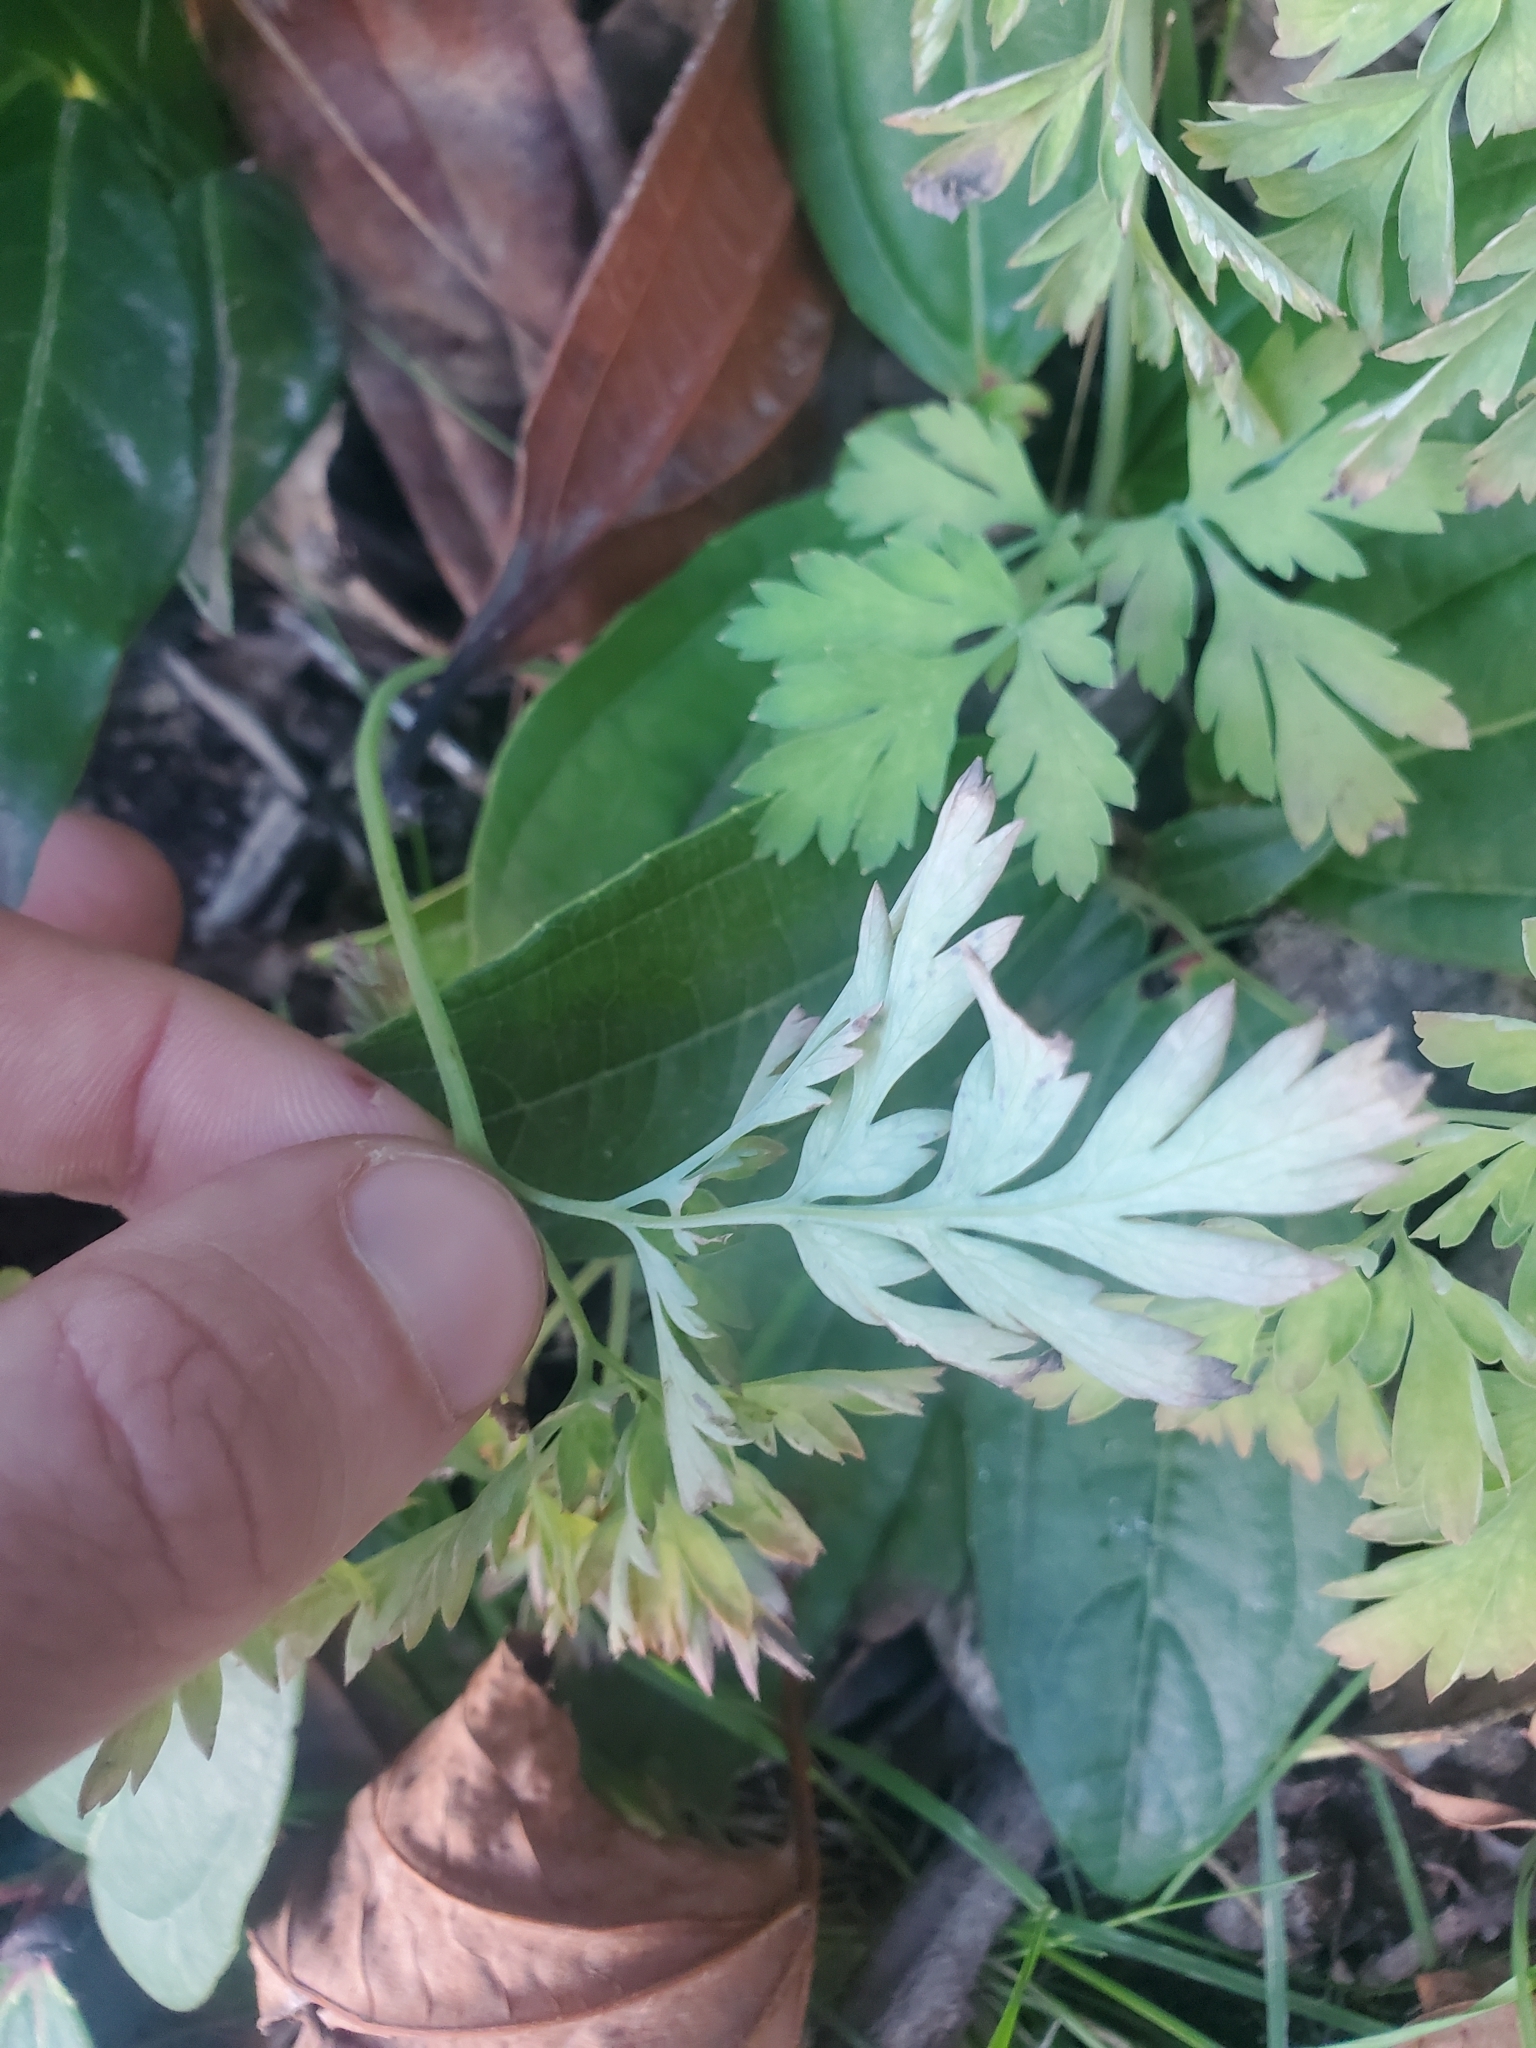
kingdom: Plantae
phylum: Tracheophyta
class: Magnoliopsida
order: Ranunculales
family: Papaveraceae
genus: Dicentra
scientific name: Dicentra formosa
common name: Bleeding-heart
